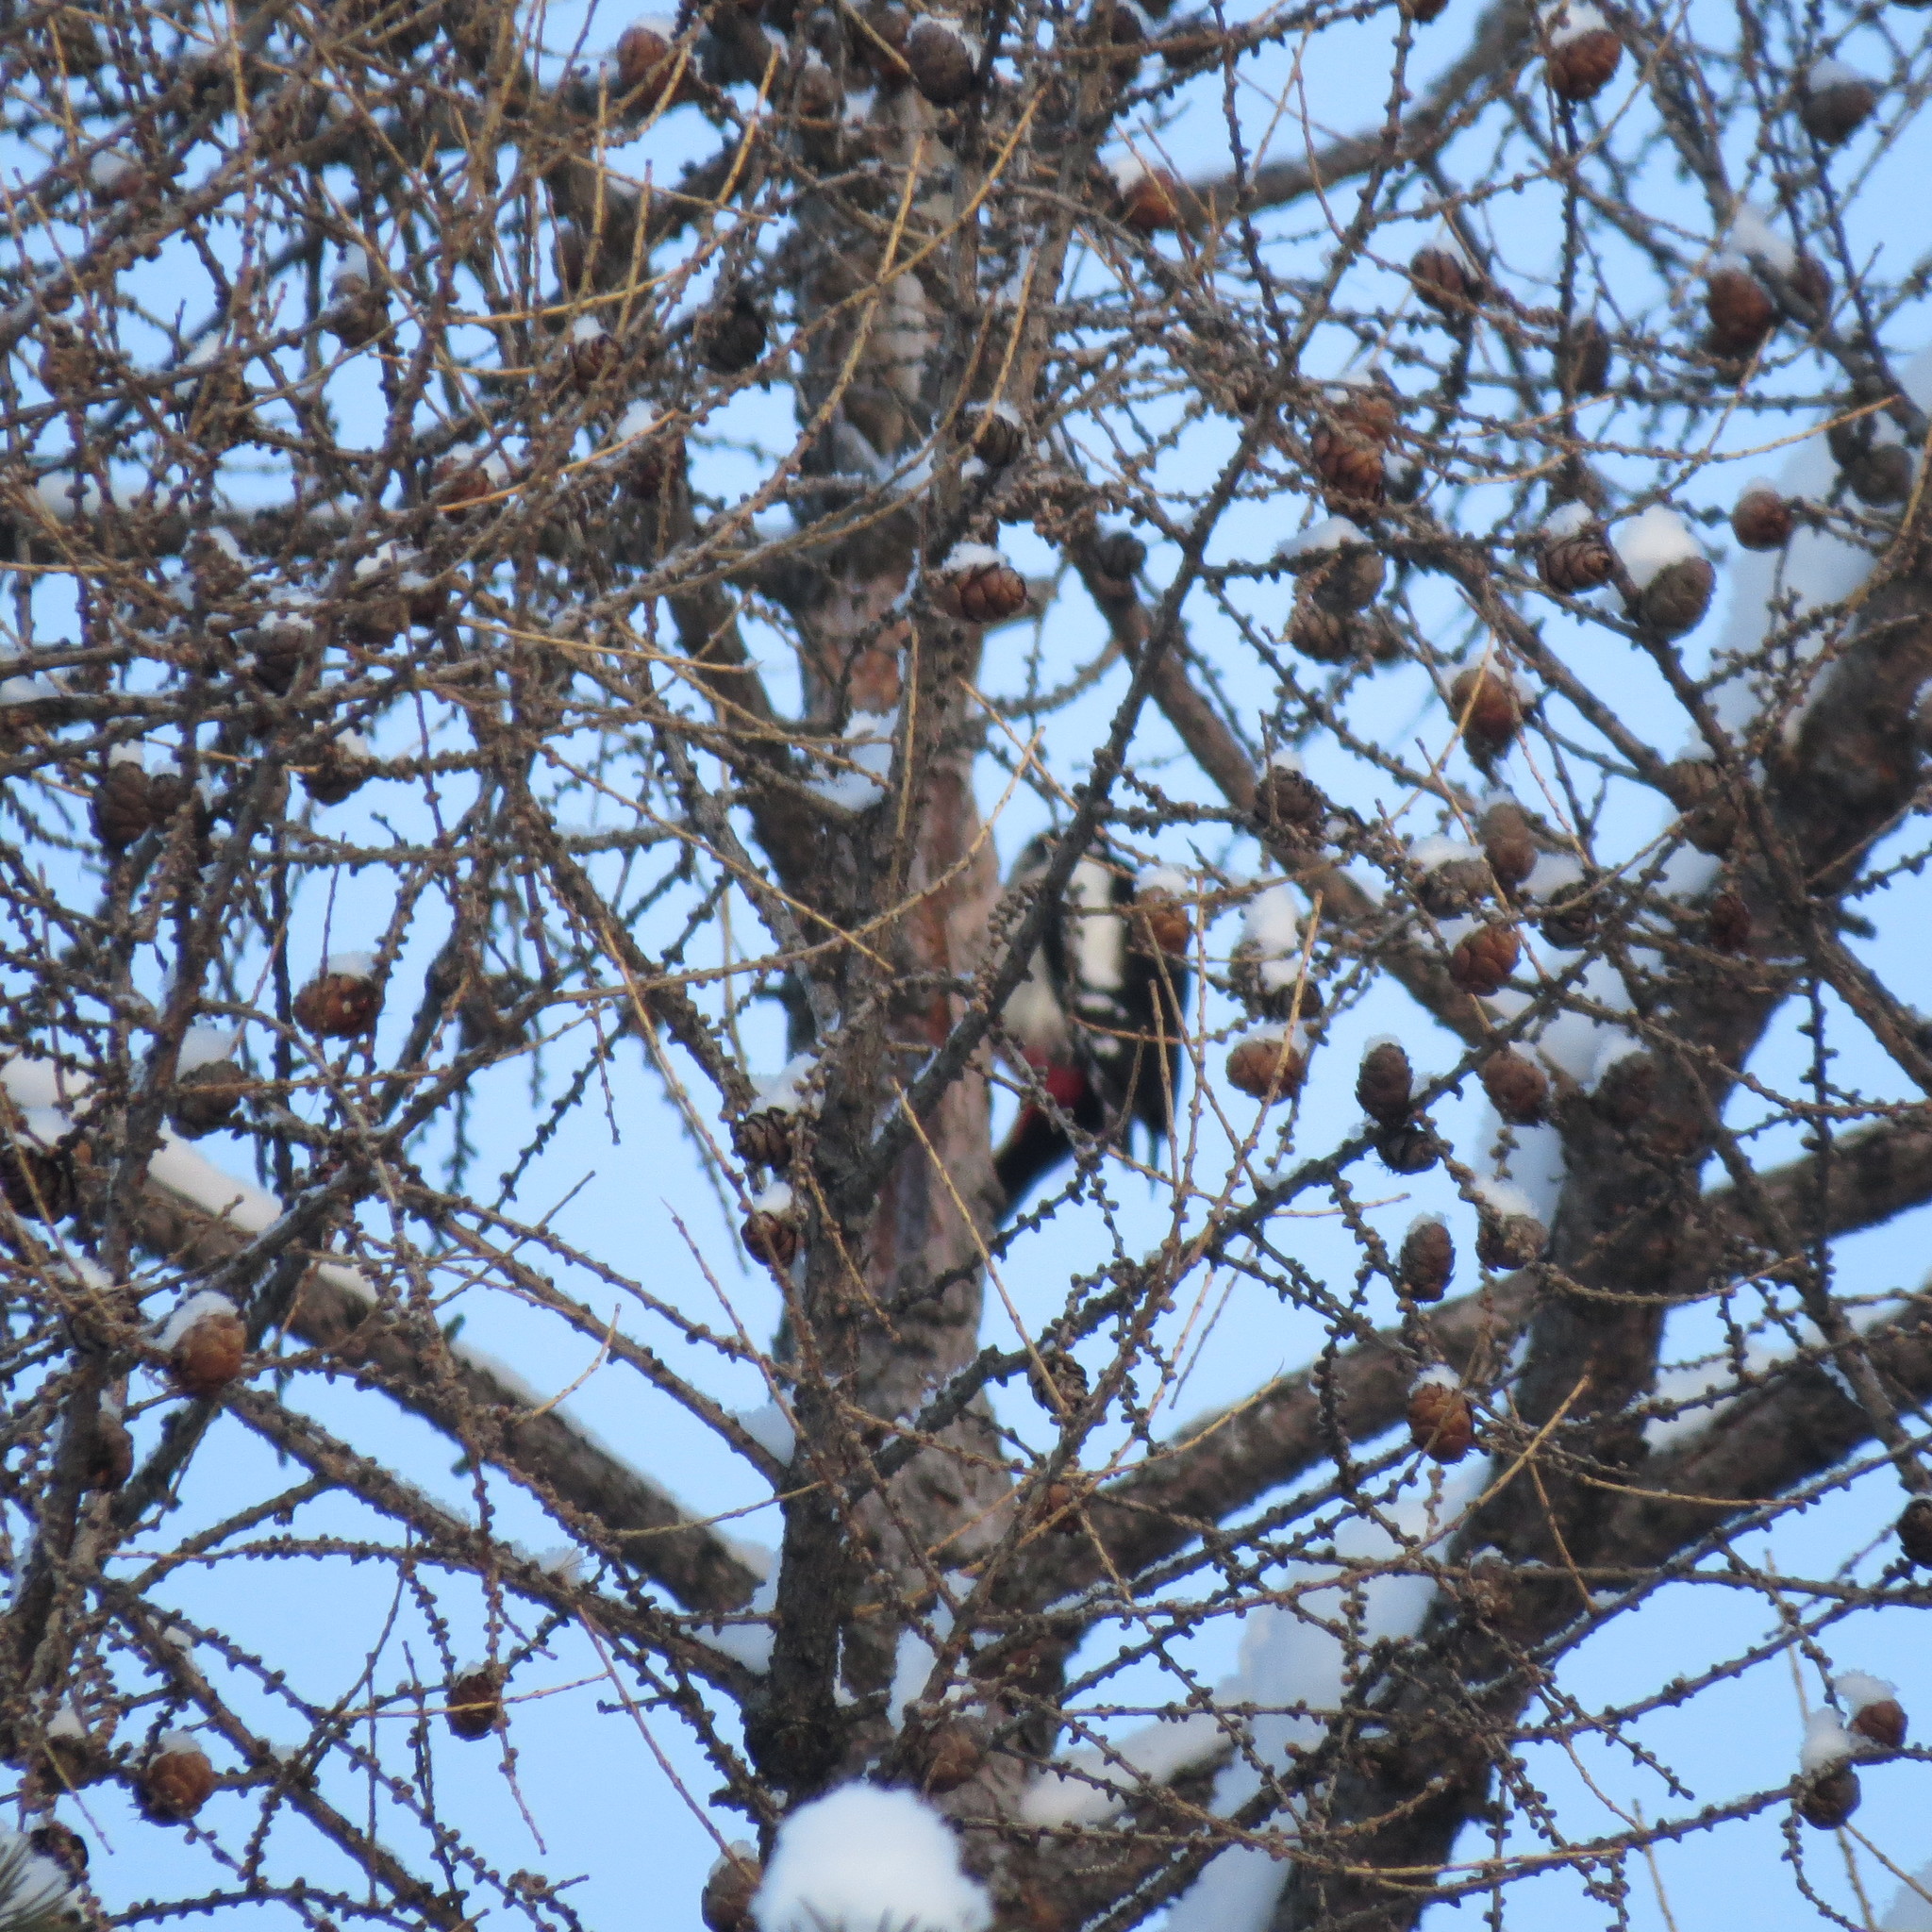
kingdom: Animalia
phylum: Chordata
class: Aves
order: Piciformes
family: Picidae
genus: Dendrocopos
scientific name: Dendrocopos major
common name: Great spotted woodpecker
